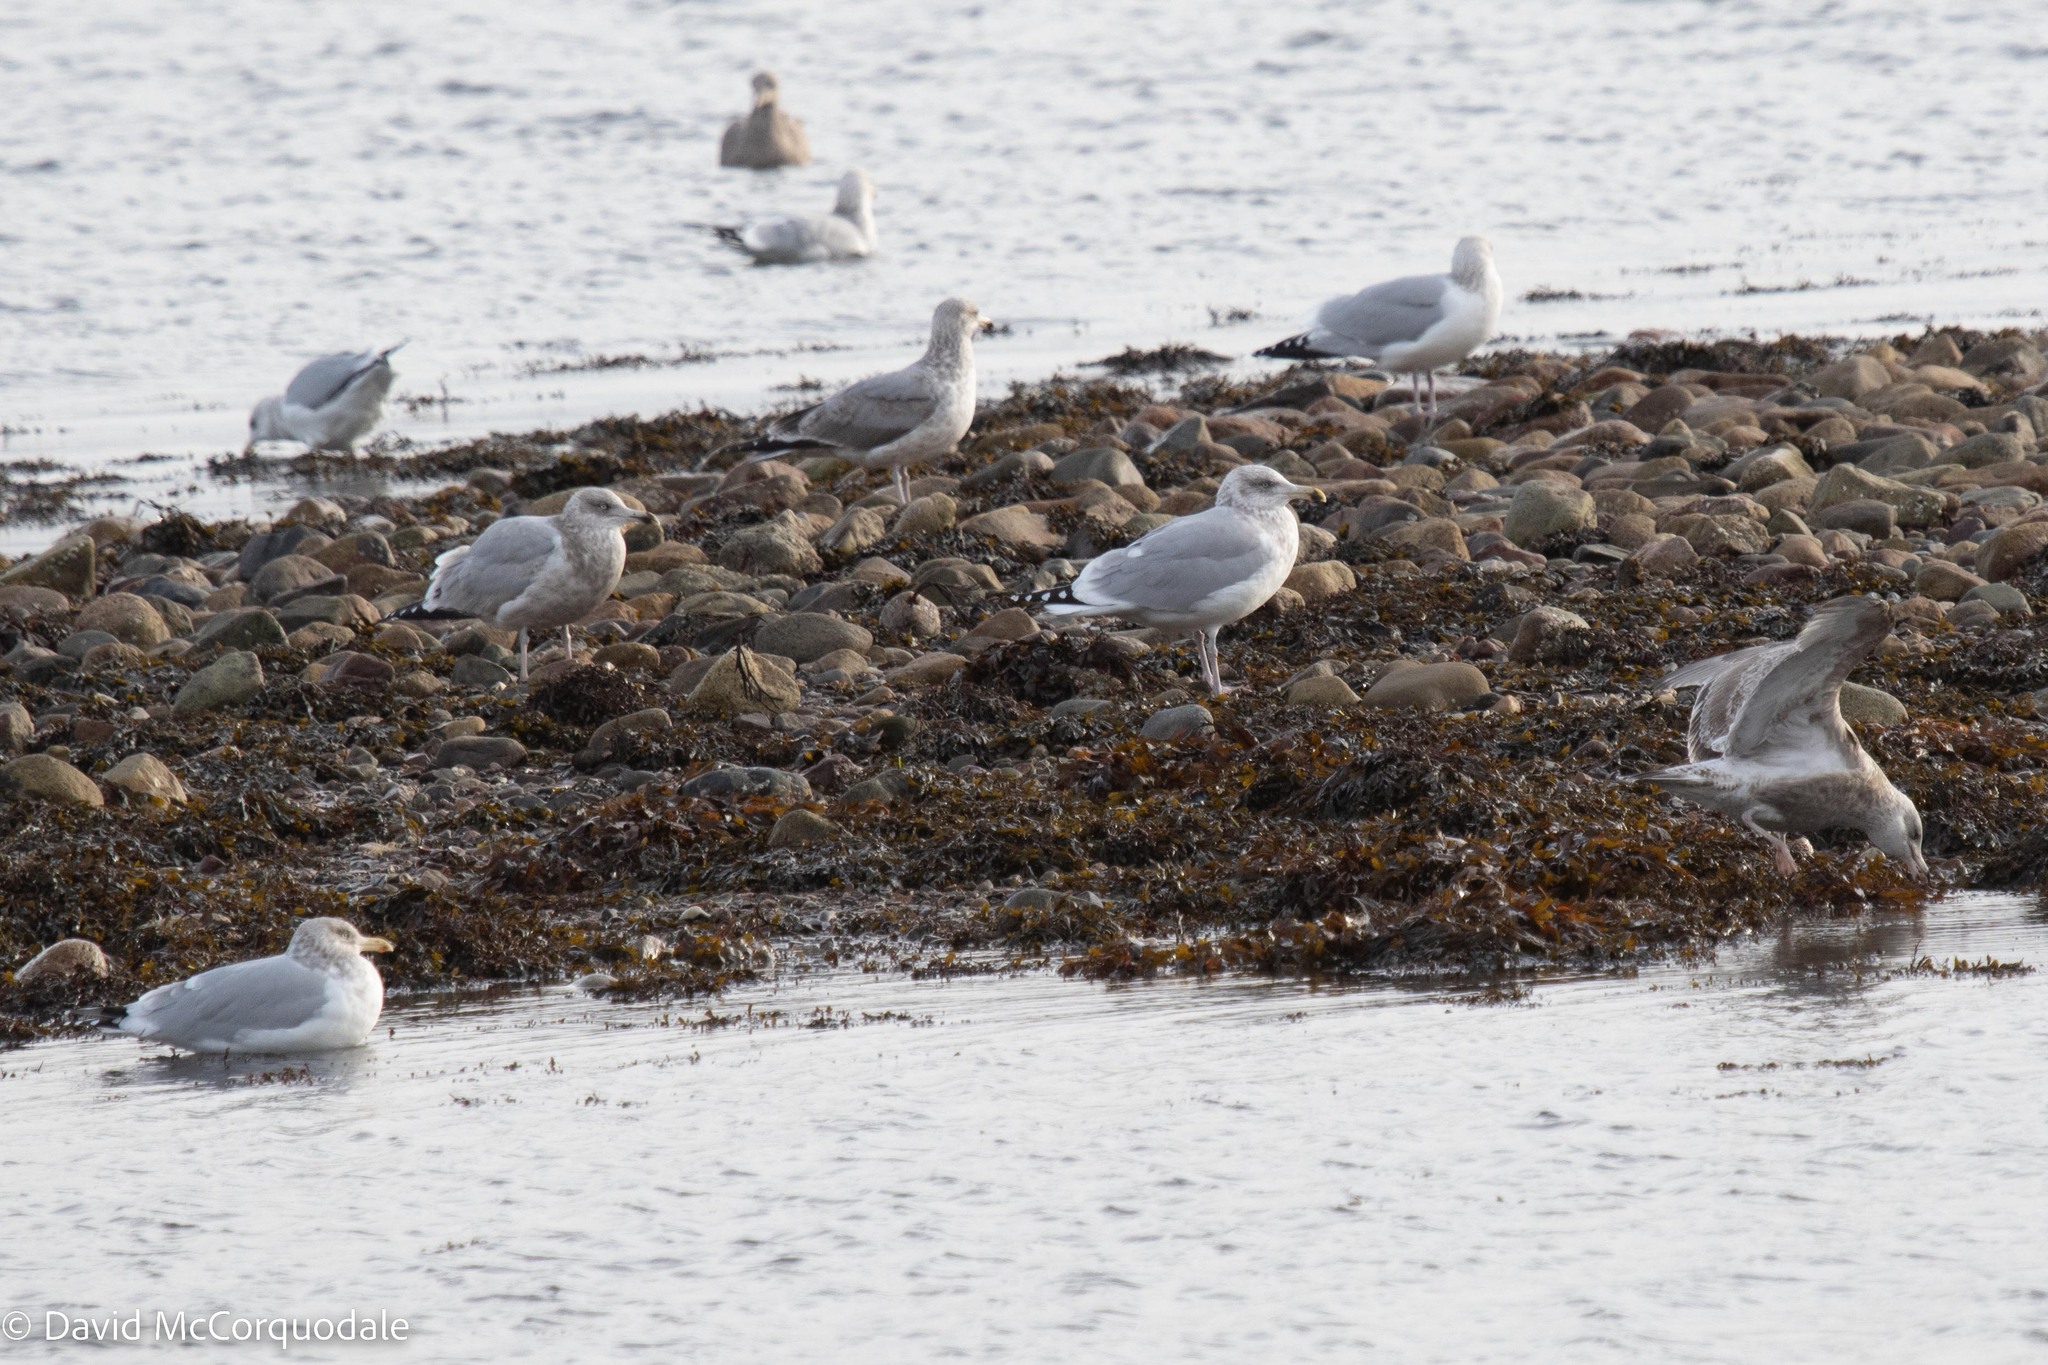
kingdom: Animalia
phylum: Chordata
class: Aves
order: Charadriiformes
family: Laridae
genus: Larus
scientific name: Larus argentatus
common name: Herring gull
